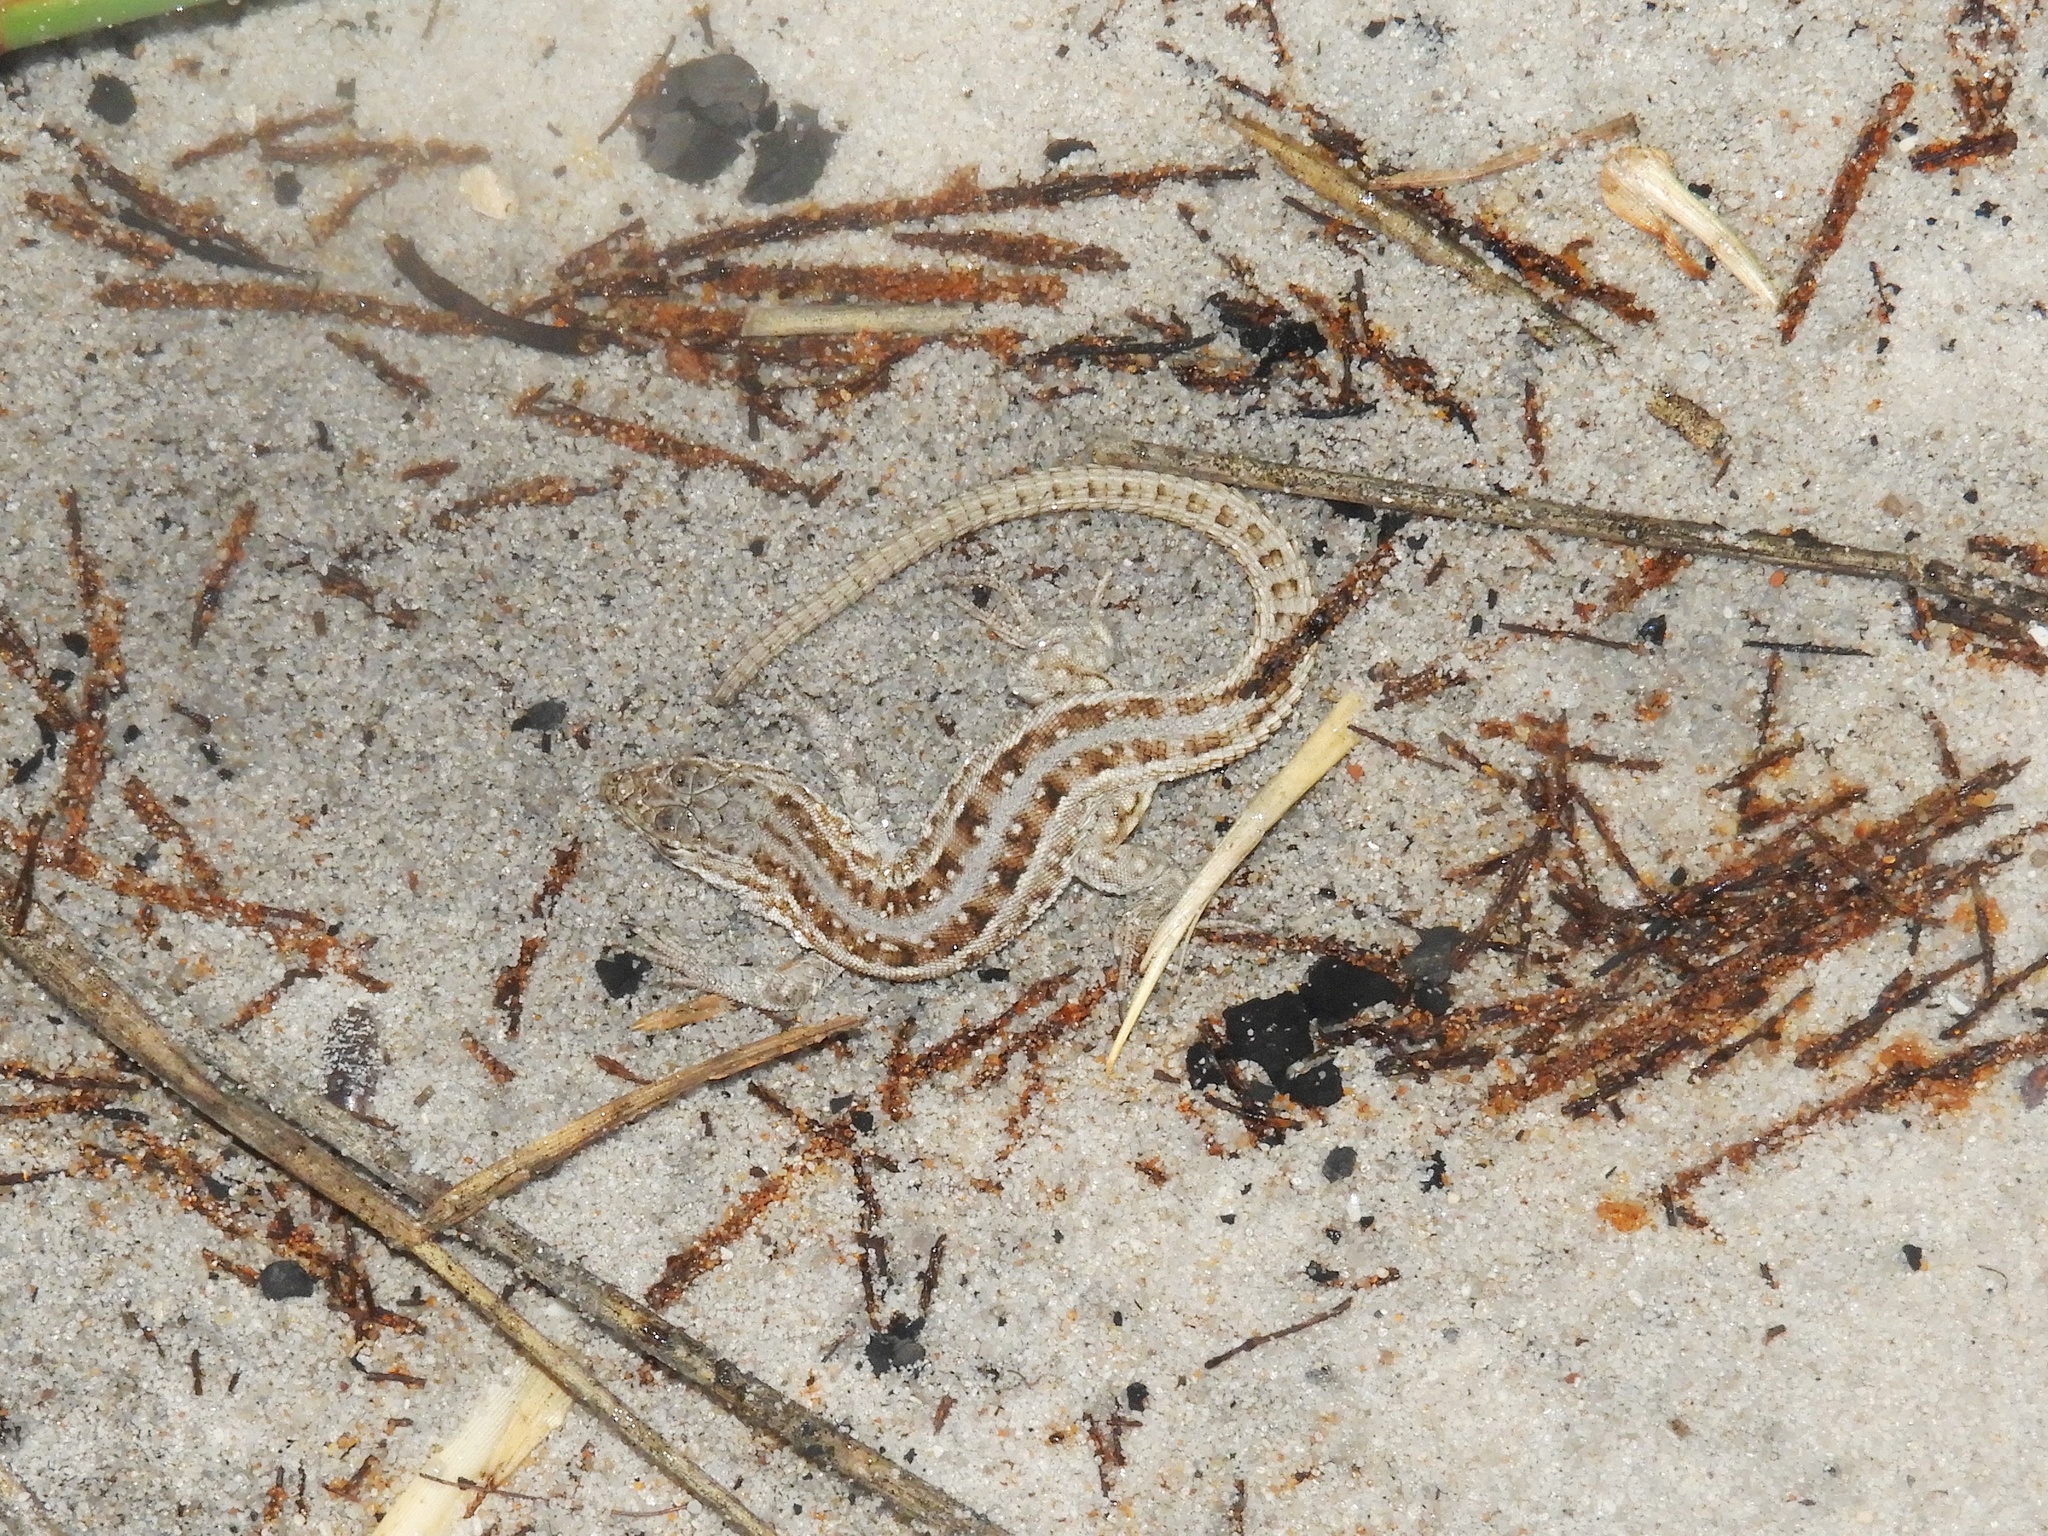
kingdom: Animalia
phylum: Chordata
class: Squamata
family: Lacertidae
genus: Meroles
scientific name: Meroles knoxii
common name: Knox's desert lizard
